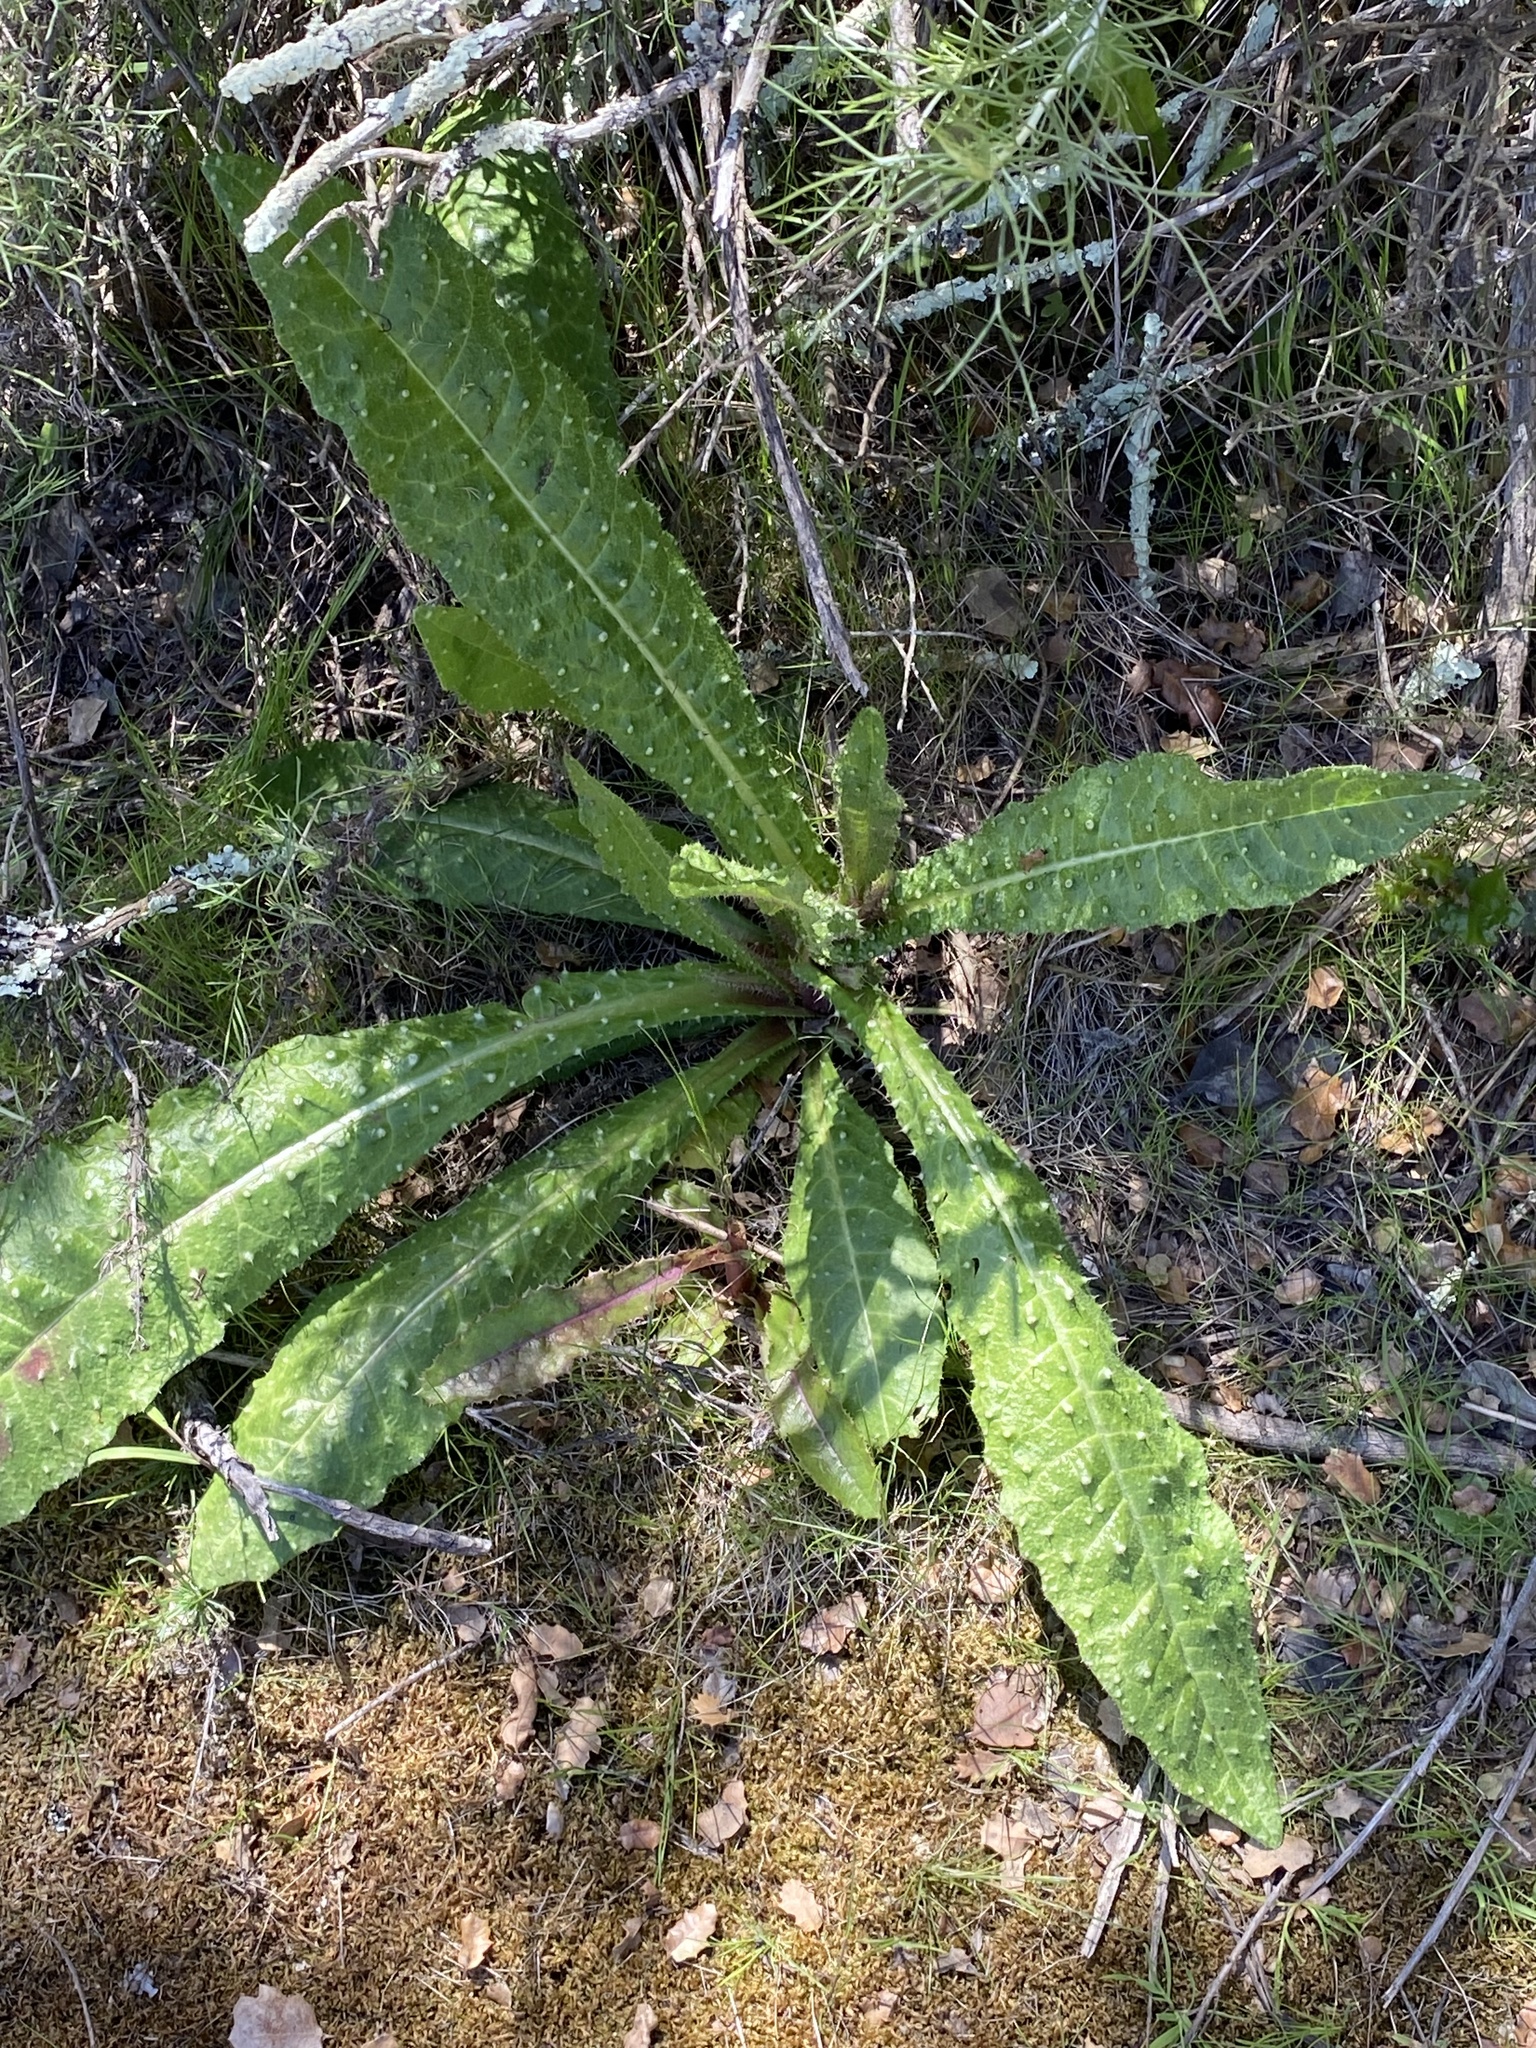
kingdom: Plantae
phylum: Tracheophyta
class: Magnoliopsida
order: Asterales
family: Asteraceae
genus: Helminthotheca
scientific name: Helminthotheca echioides
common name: Ox-tongue
